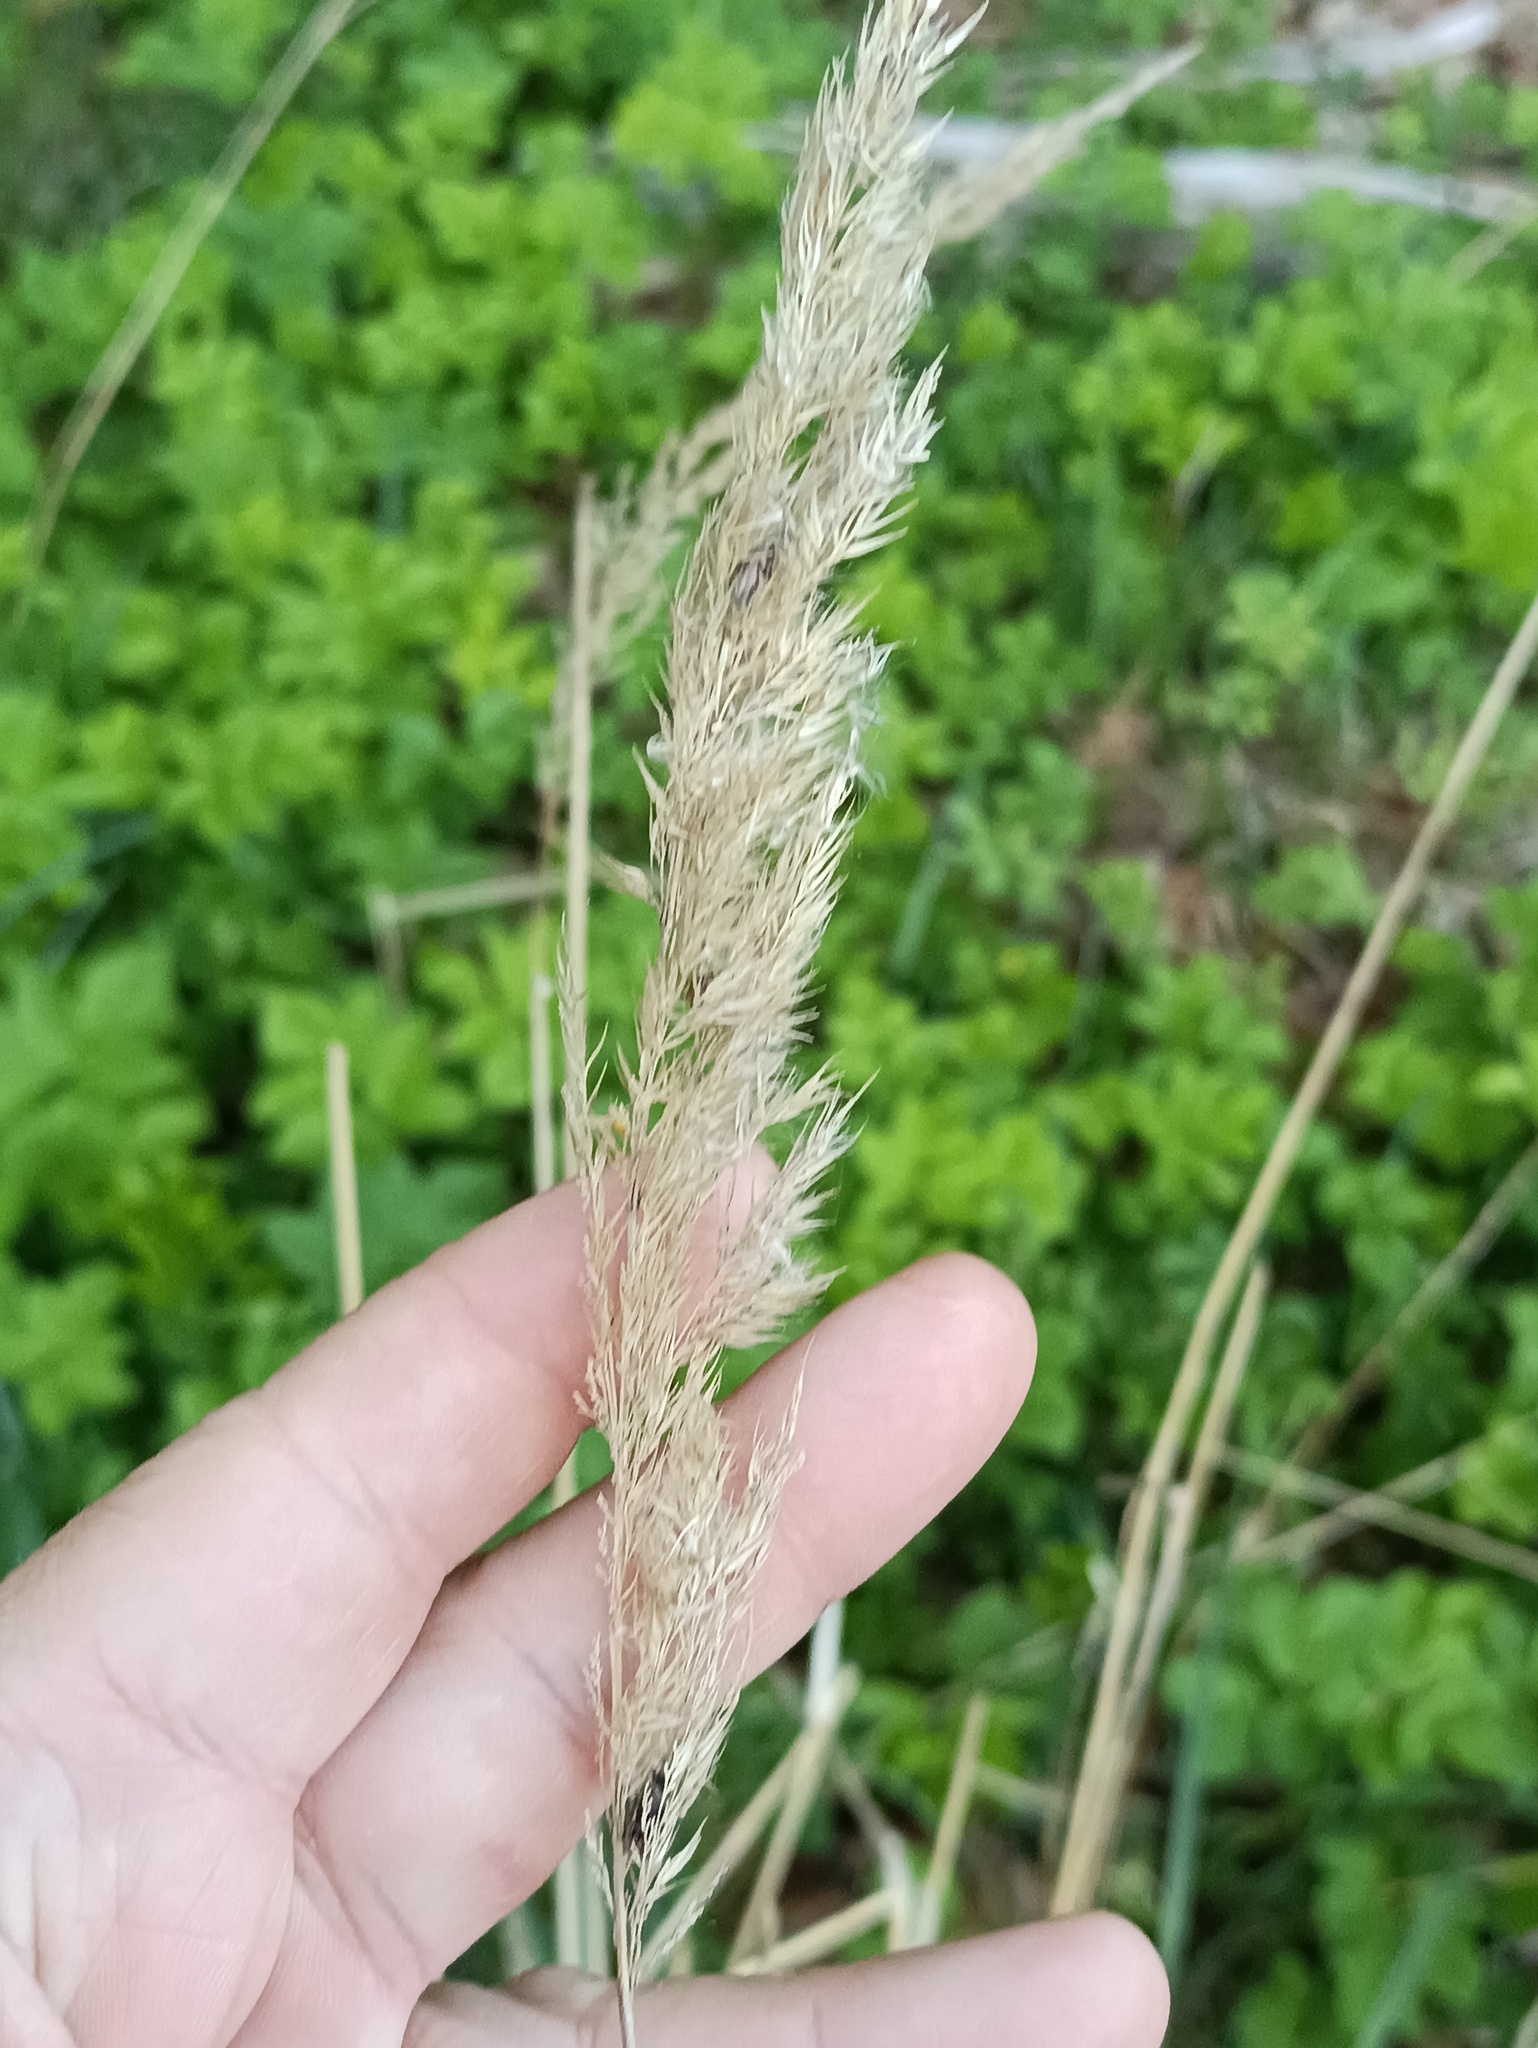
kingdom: Plantae
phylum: Tracheophyta
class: Liliopsida
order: Poales
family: Poaceae
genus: Calamagrostis
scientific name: Calamagrostis epigejos
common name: Wood small-reed
